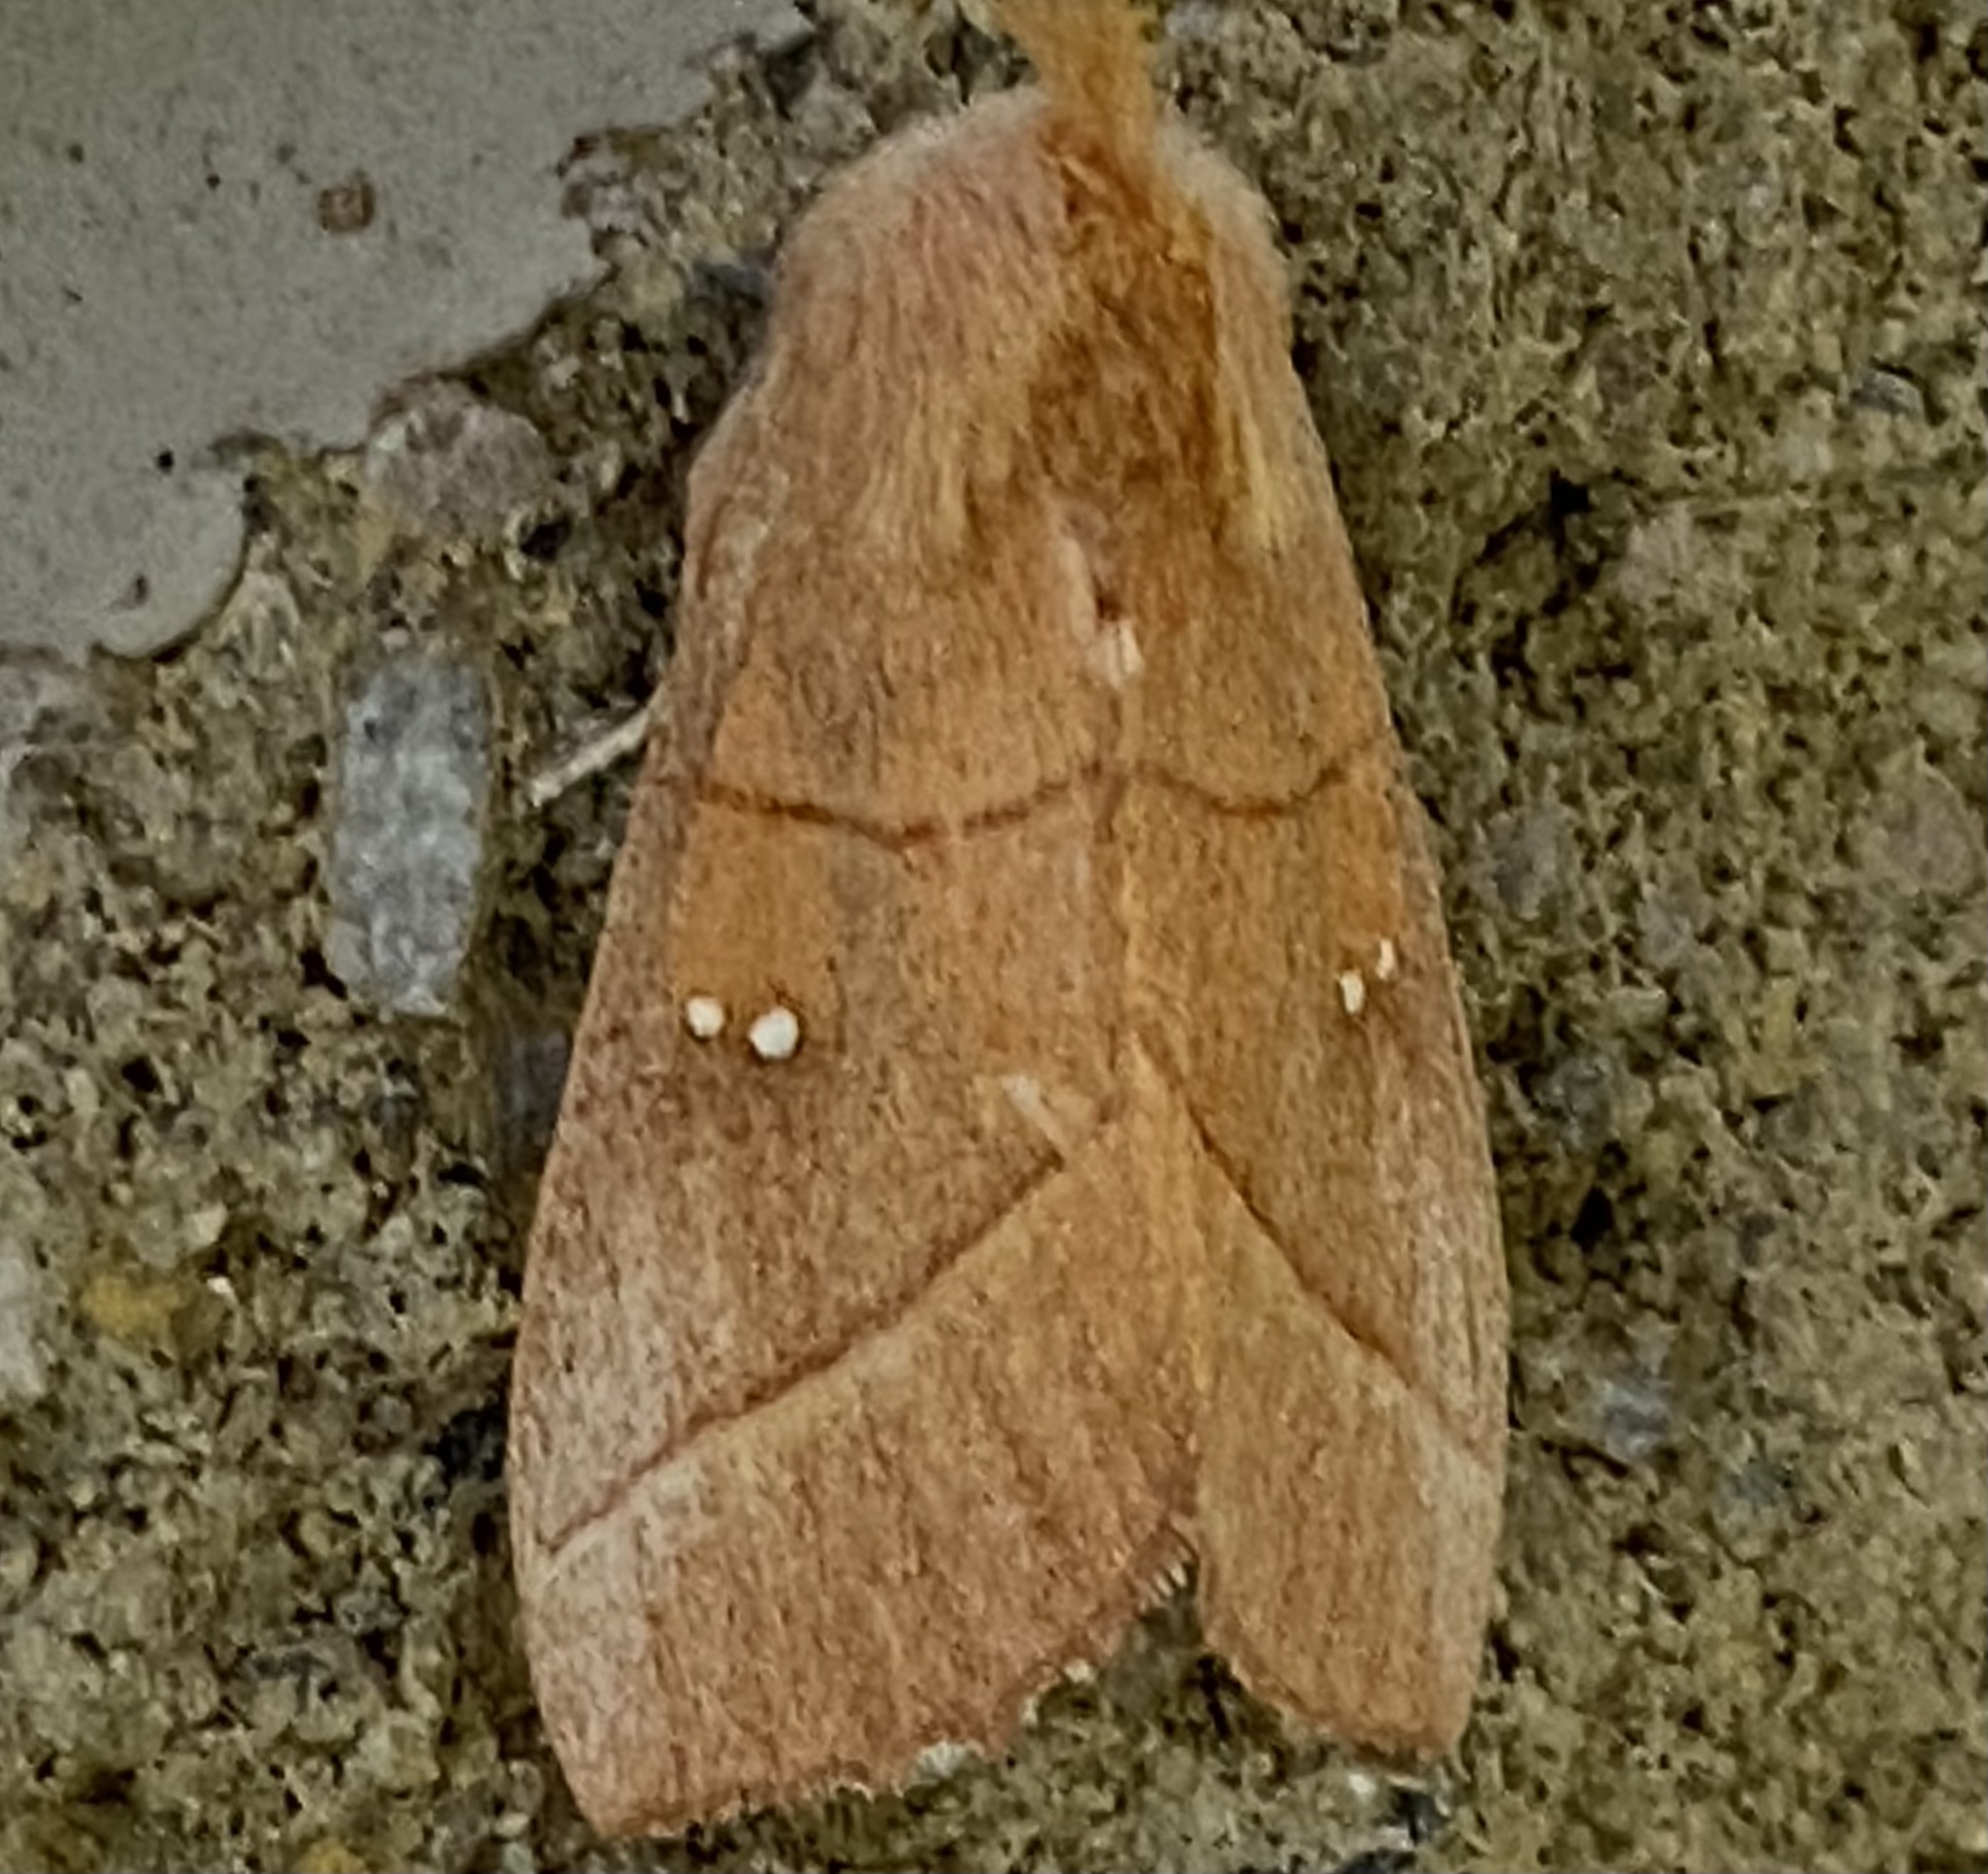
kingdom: Animalia
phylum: Arthropoda
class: Insecta
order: Lepidoptera
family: Notodontidae
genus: Nadata
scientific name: Nadata gibbosa
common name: White-dotted prominent
